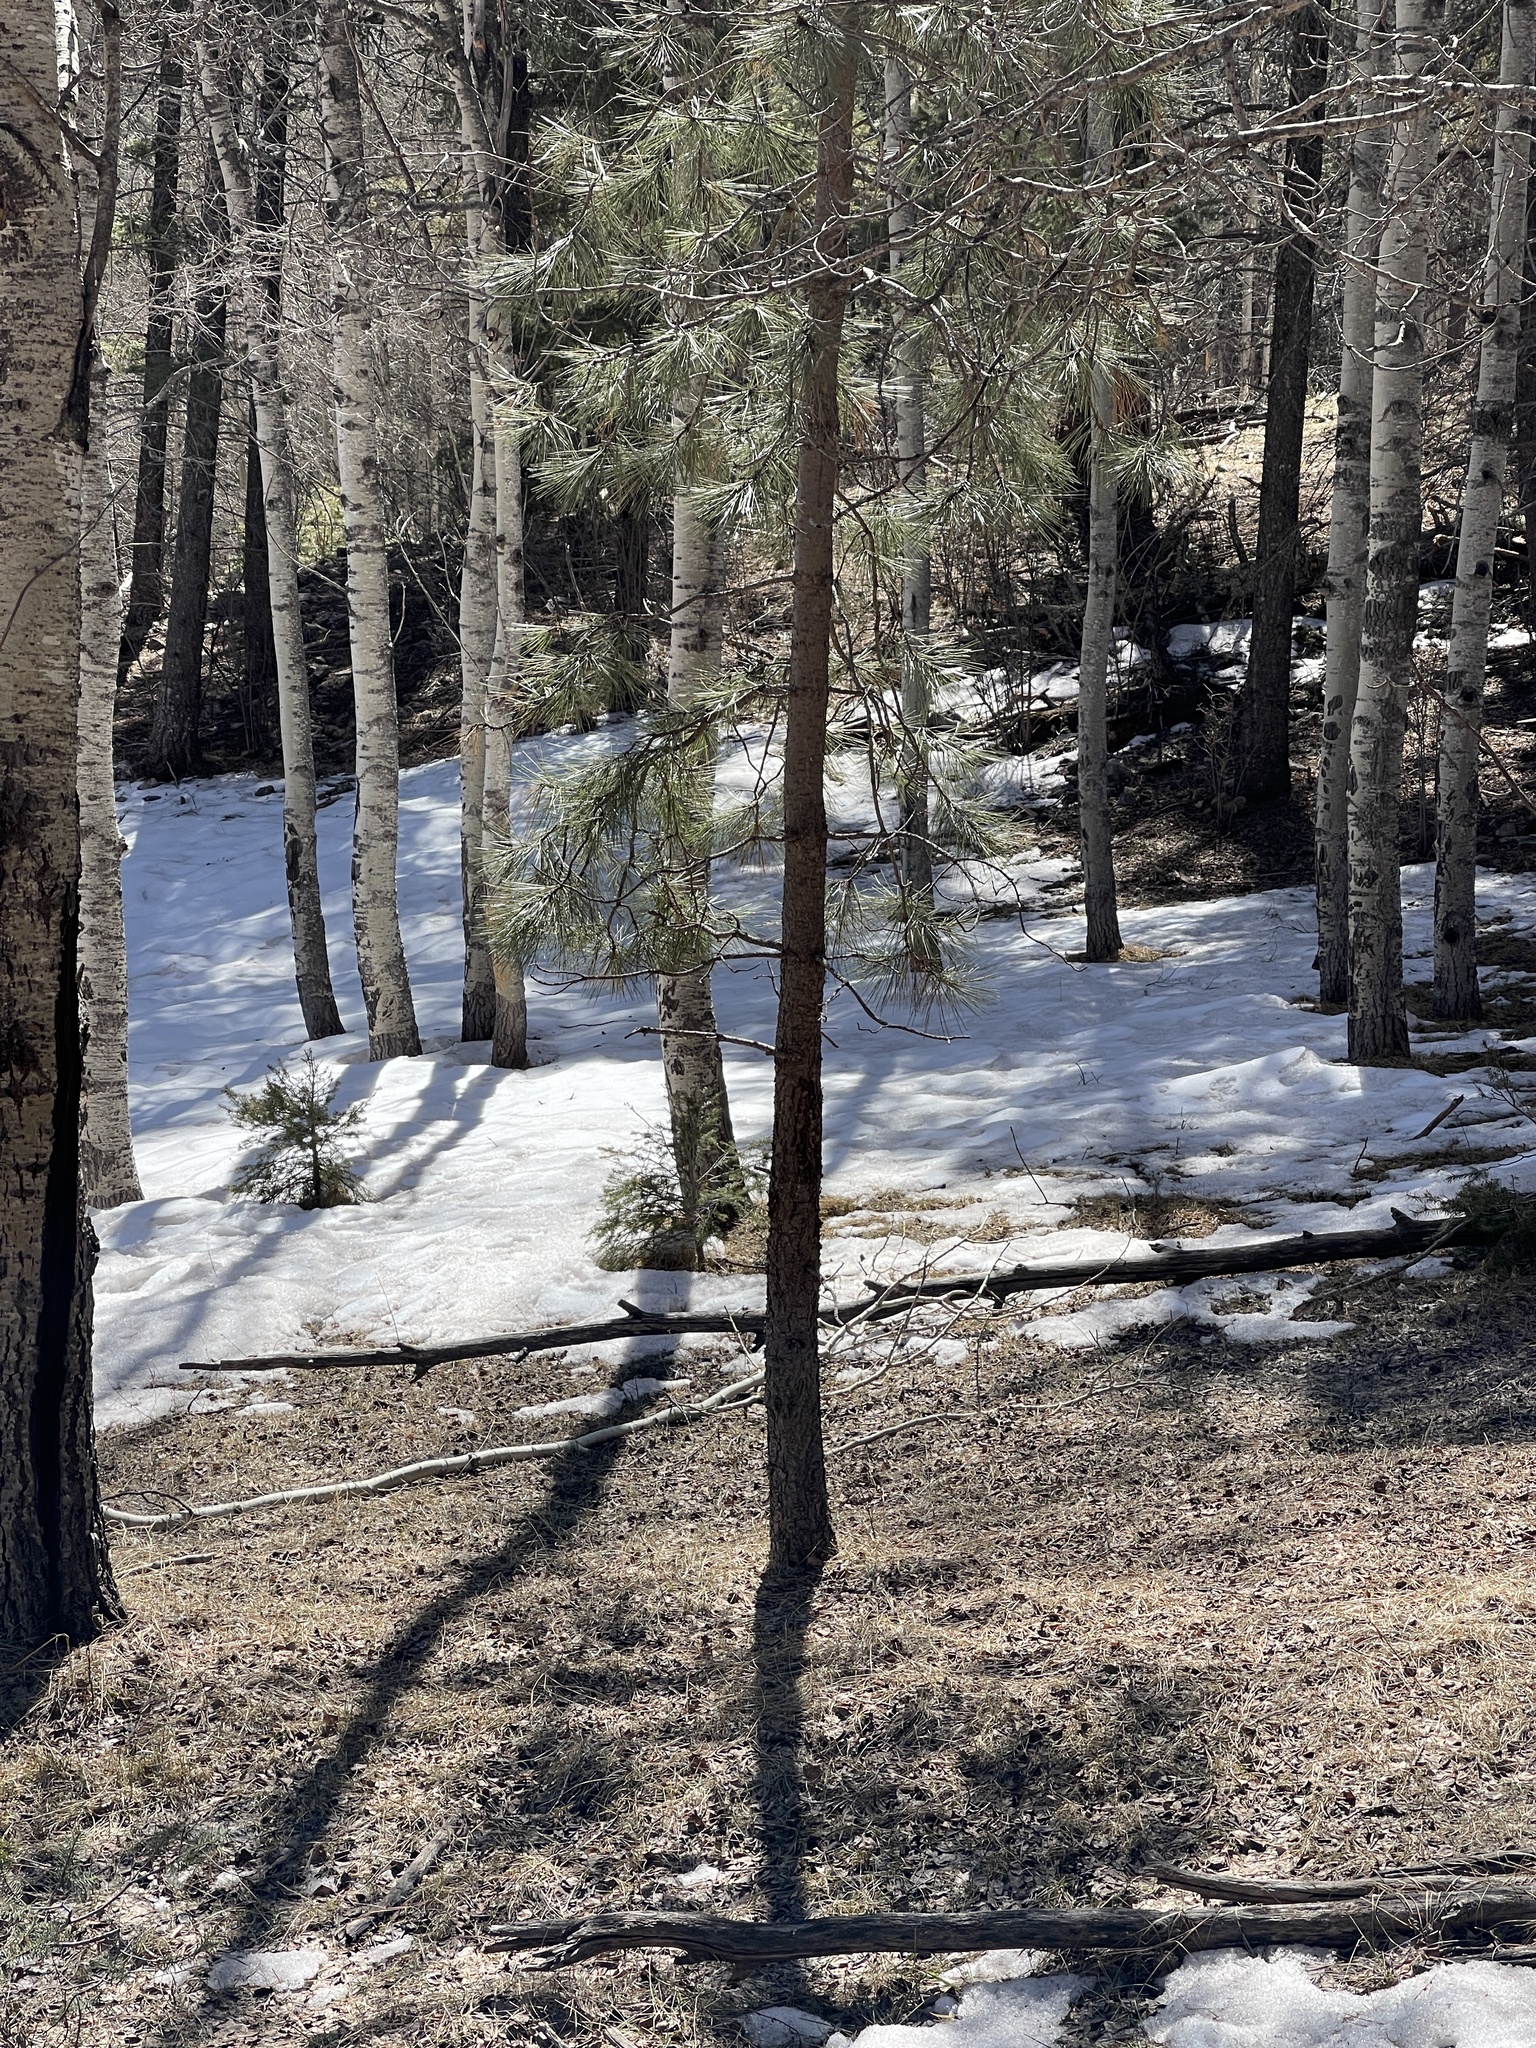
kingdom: Plantae
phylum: Tracheophyta
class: Pinopsida
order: Pinales
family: Pinaceae
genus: Pinus
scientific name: Pinus ponderosa
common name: Western yellow-pine
